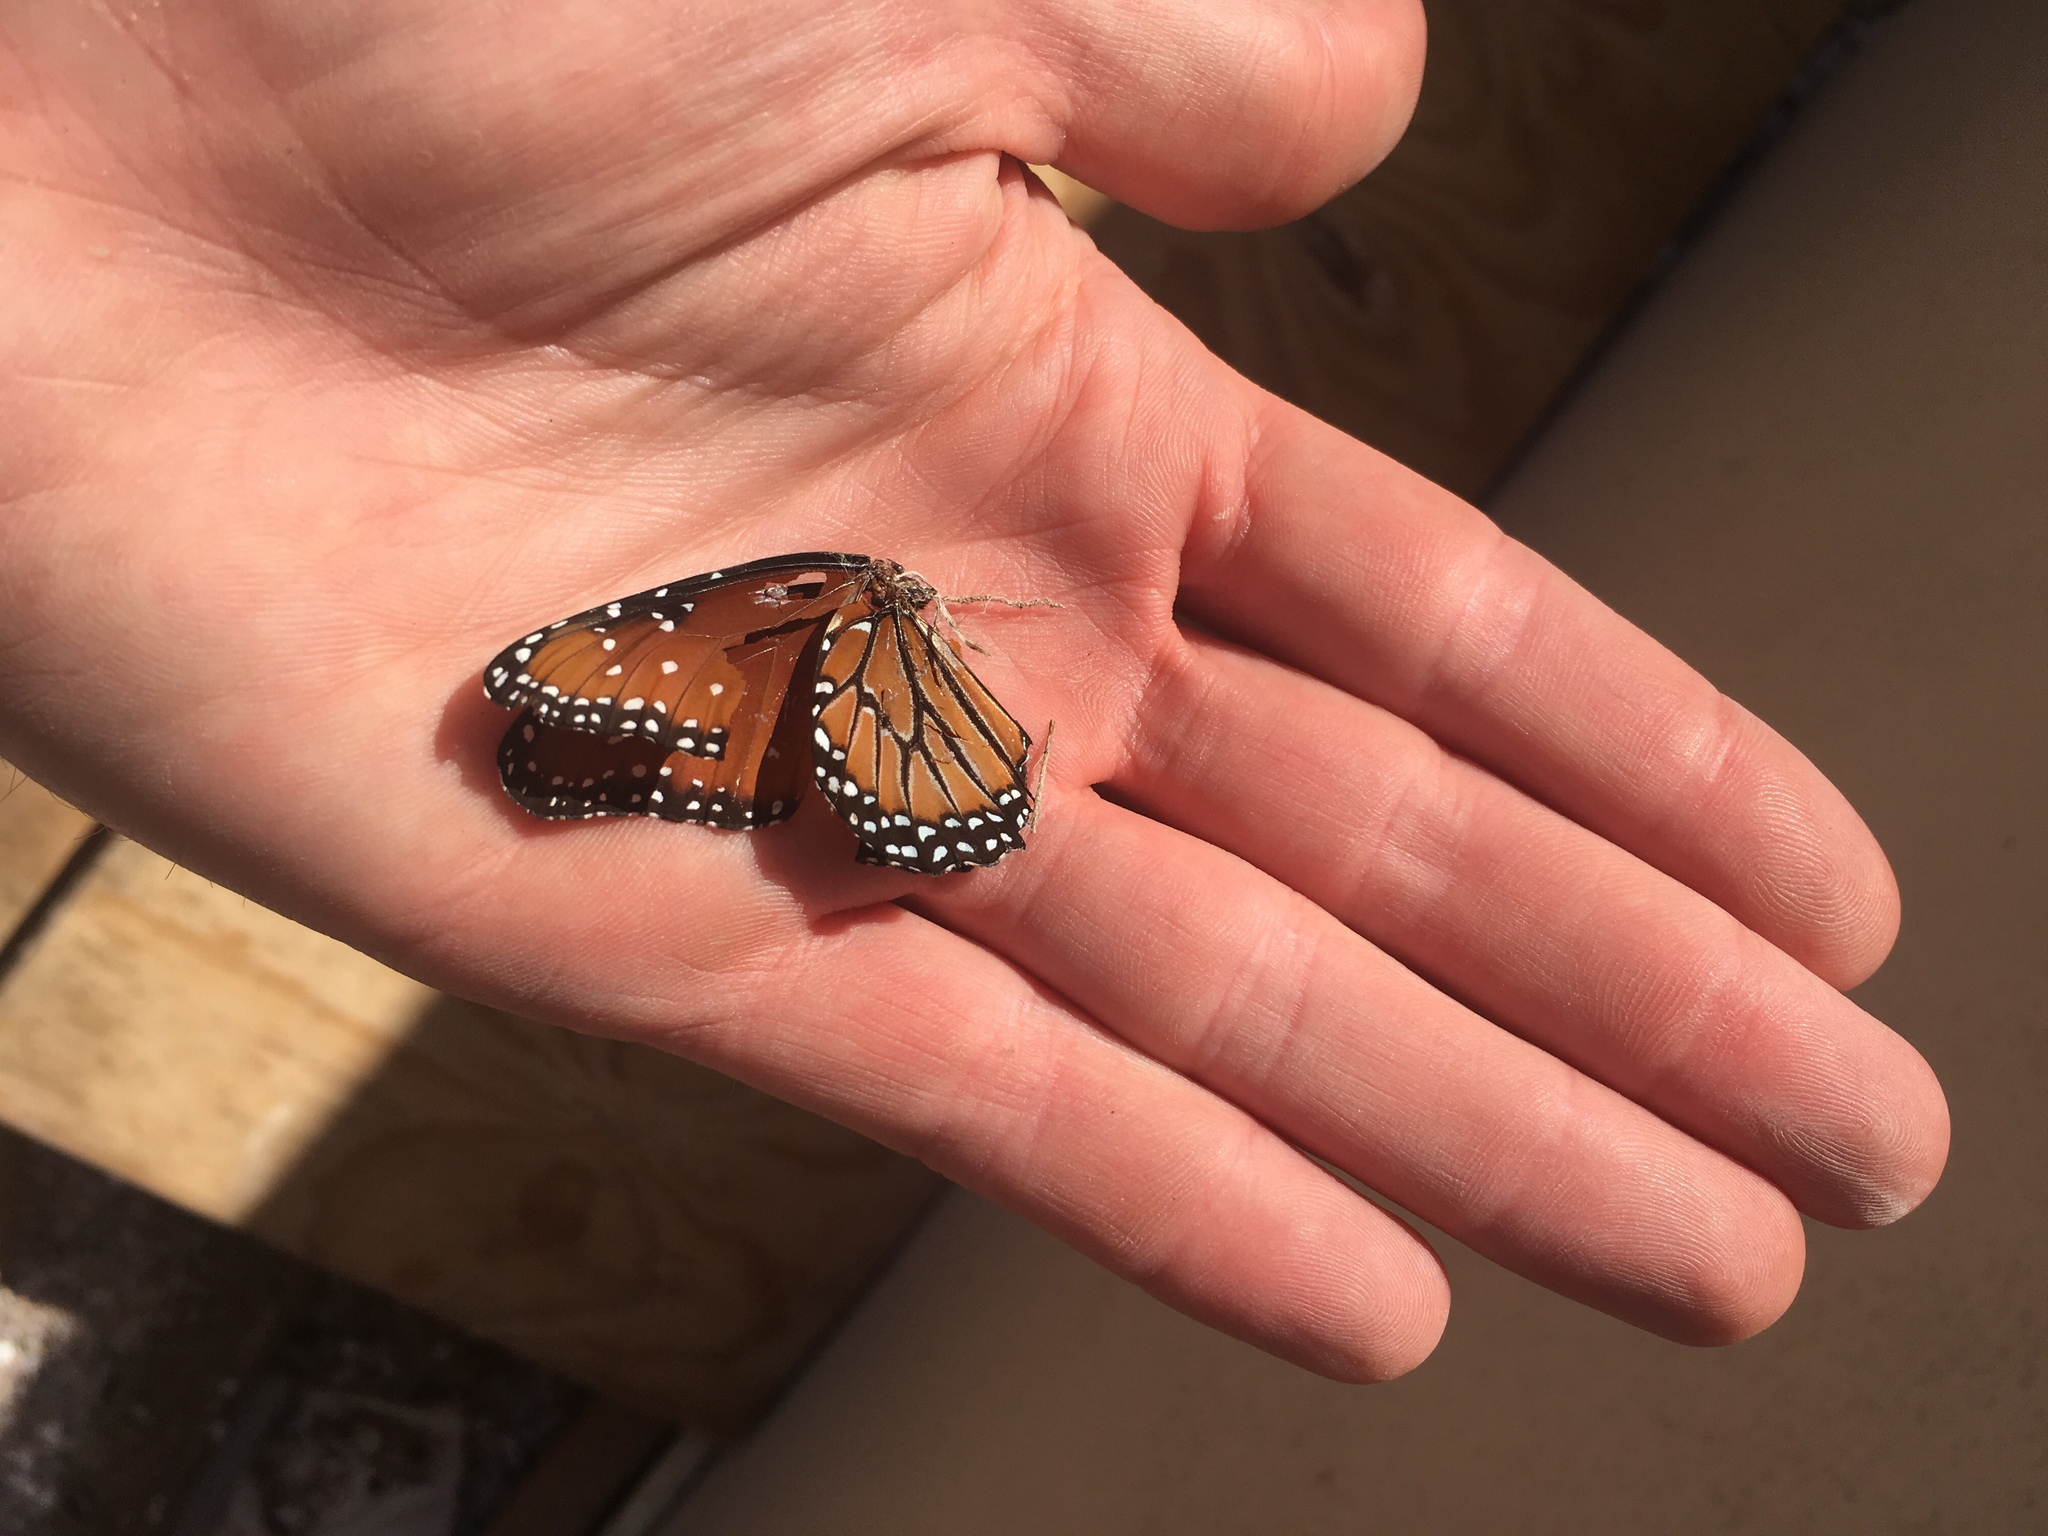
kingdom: Animalia
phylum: Arthropoda
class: Insecta
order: Lepidoptera
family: Nymphalidae
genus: Danaus
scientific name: Danaus gilippus
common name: Queen
